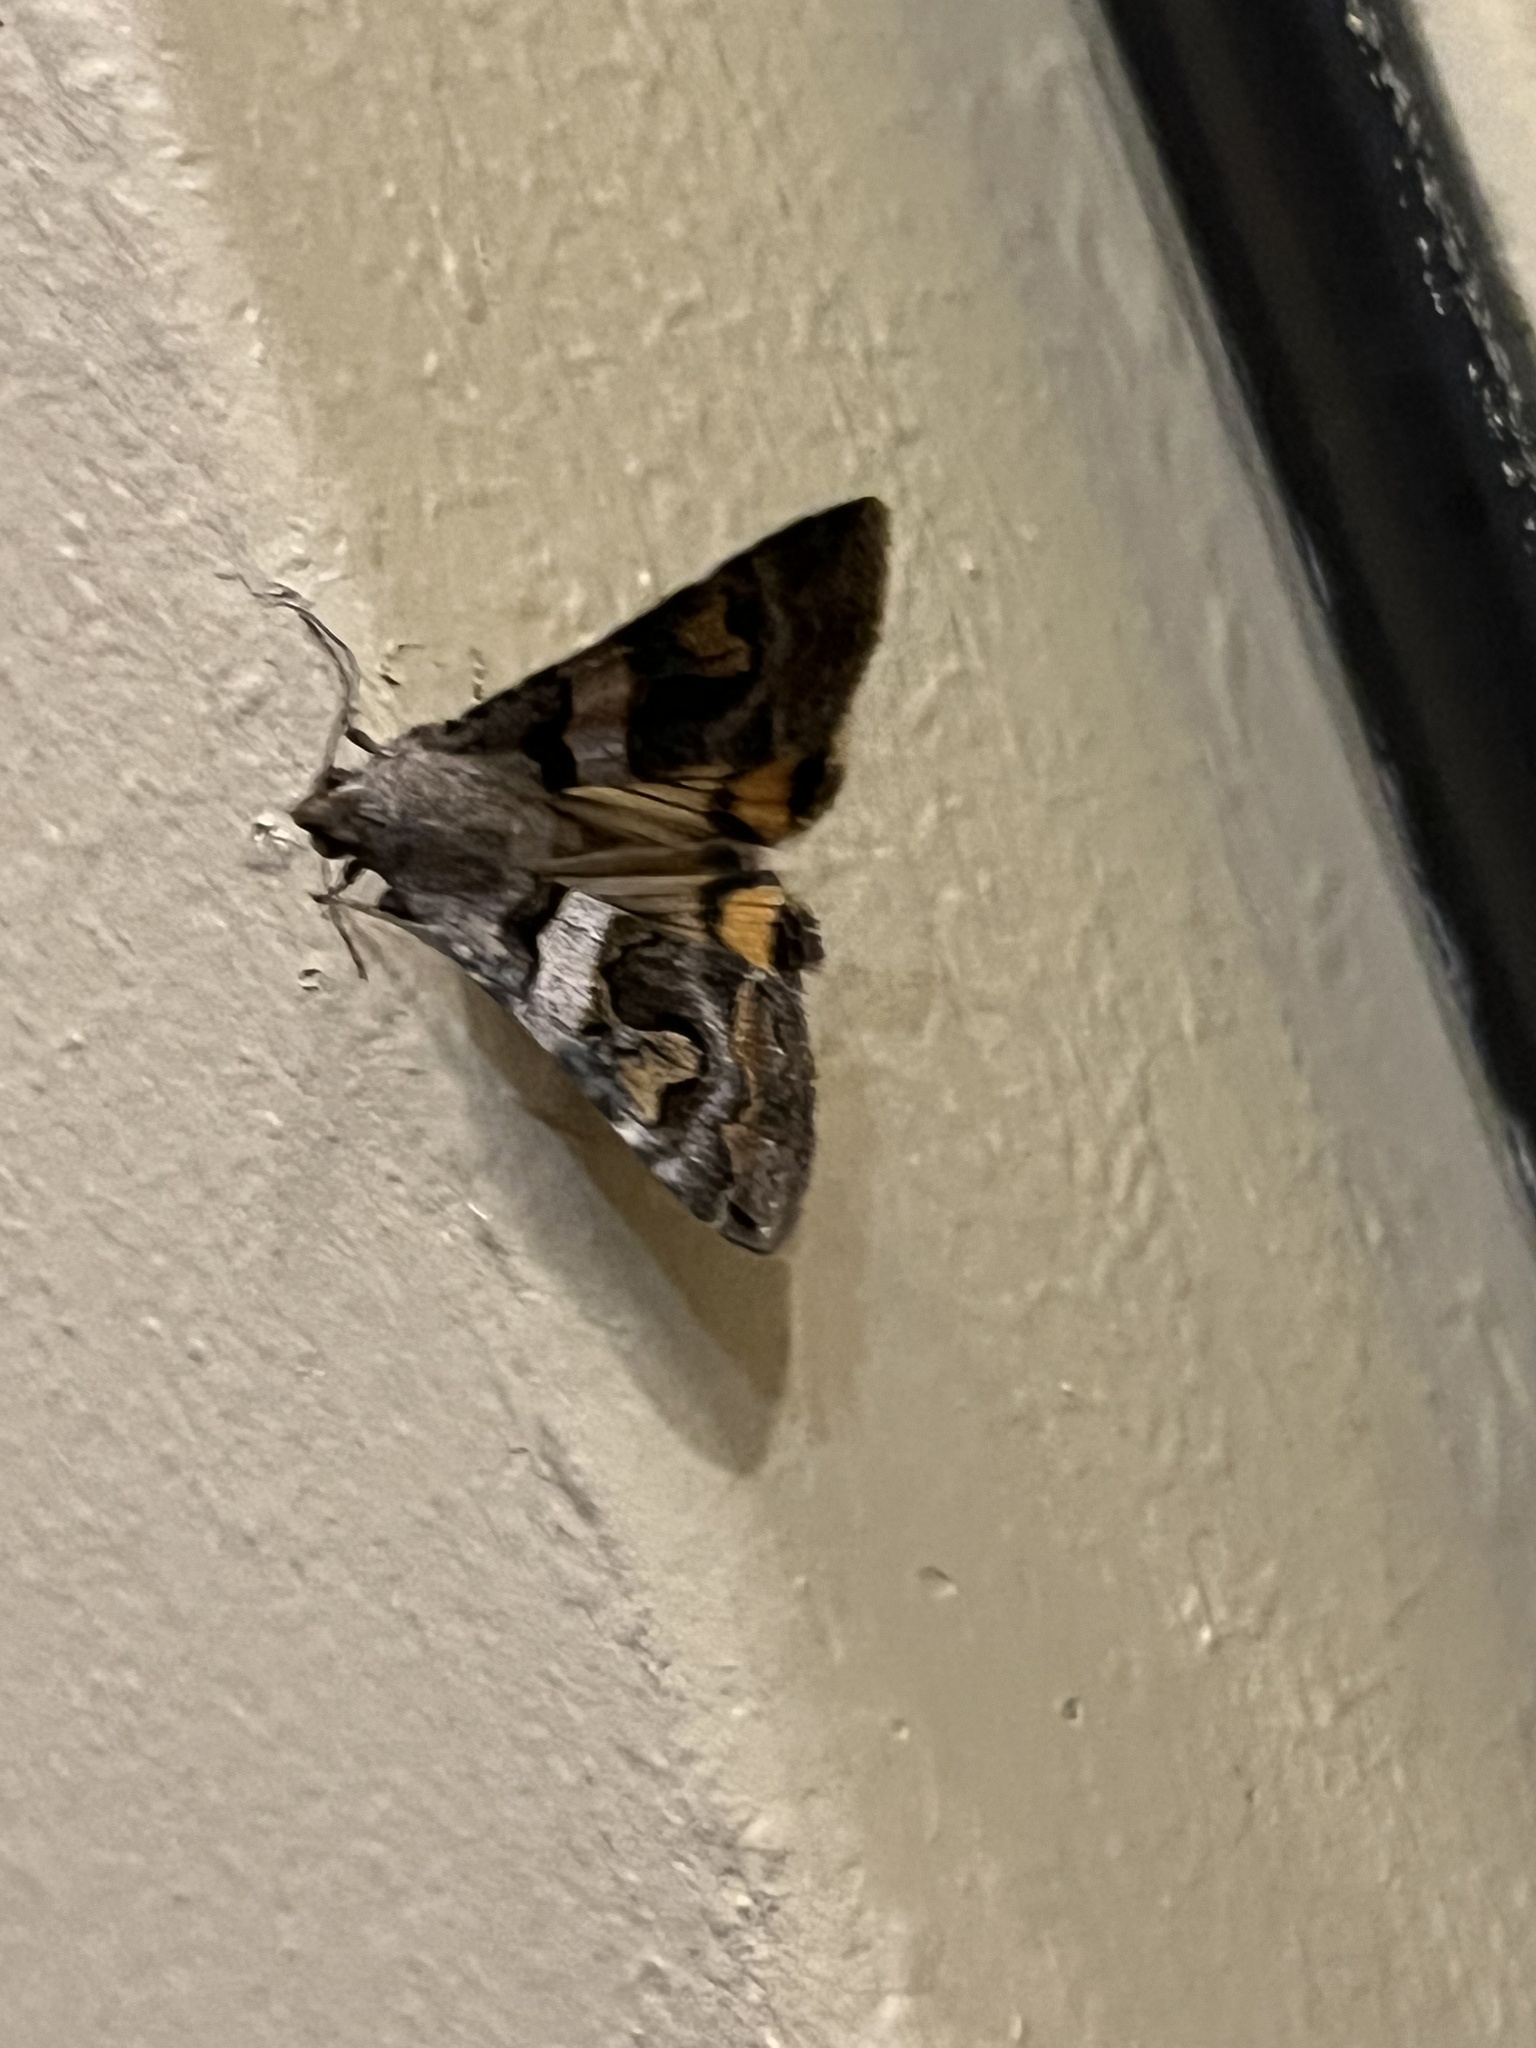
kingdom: Animalia
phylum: Arthropoda
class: Insecta
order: Lepidoptera
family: Erebidae
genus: Bulia
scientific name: Bulia deducta
